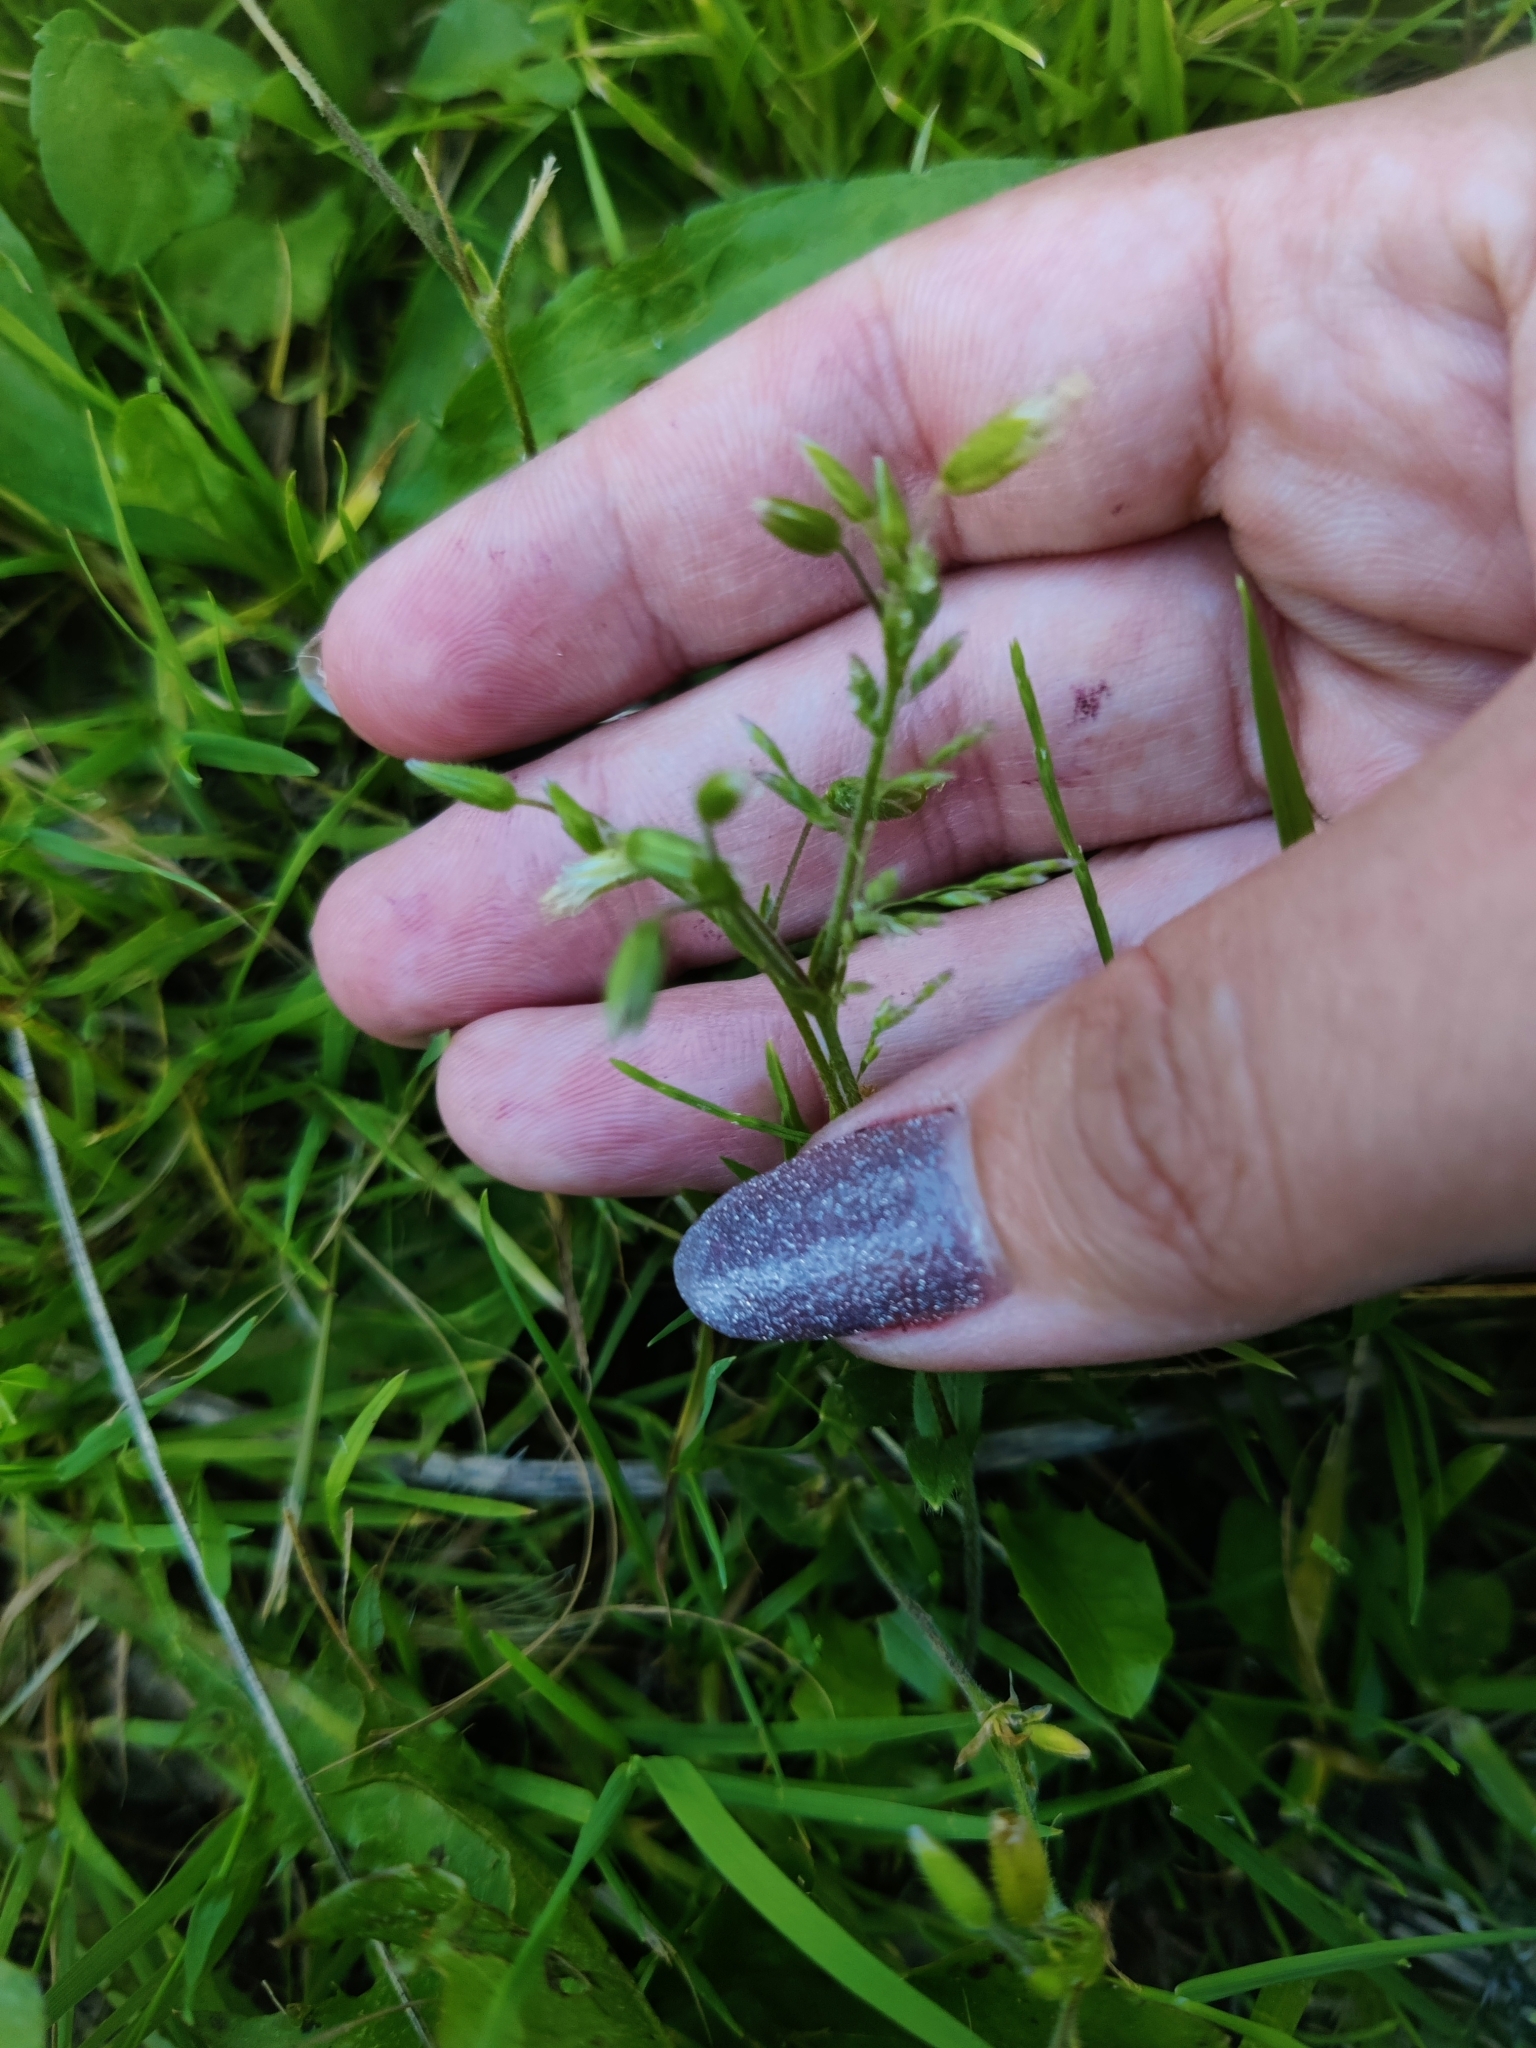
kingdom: Plantae
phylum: Tracheophyta
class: Magnoliopsida
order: Caryophyllales
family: Caryophyllaceae
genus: Cerastium
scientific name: Cerastium holosteoides
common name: Big chickweed
